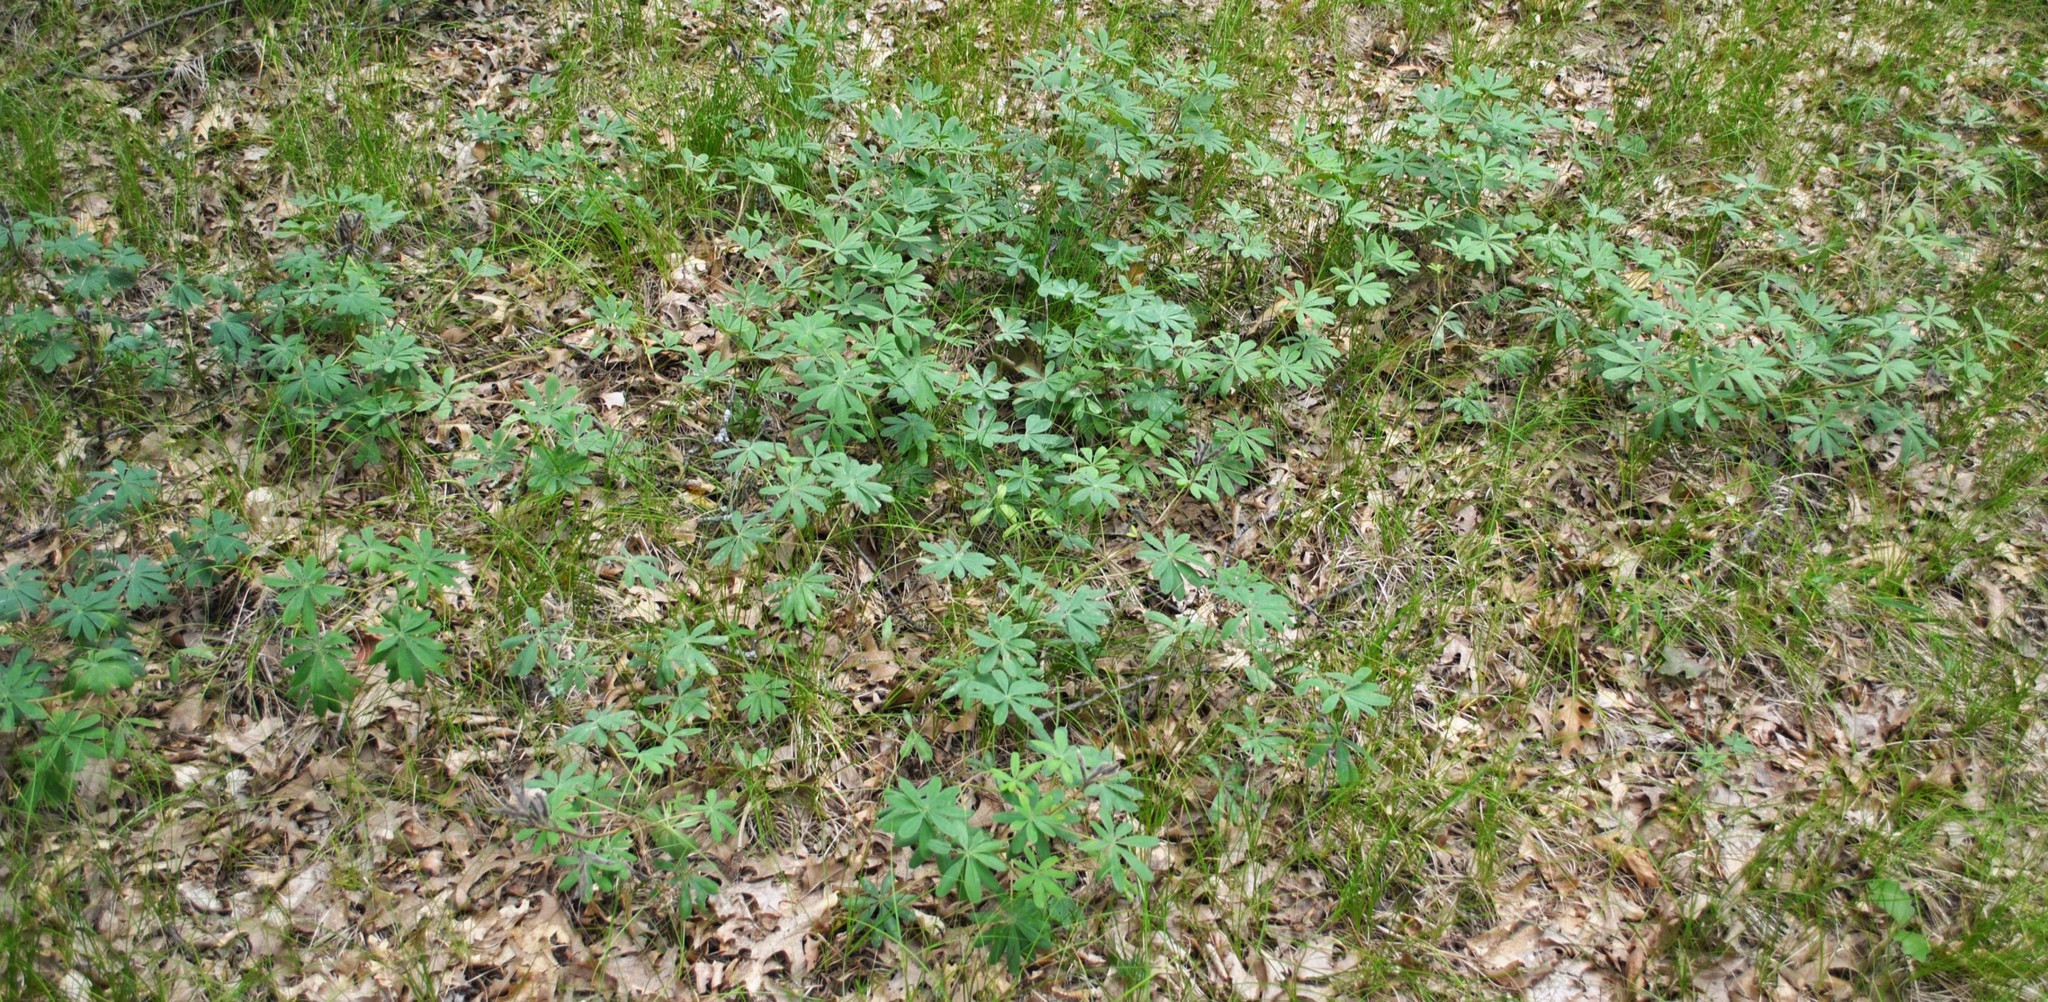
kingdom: Plantae
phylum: Tracheophyta
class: Magnoliopsida
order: Fabales
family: Fabaceae
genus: Lupinus
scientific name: Lupinus perennis
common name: Sundial lupine
